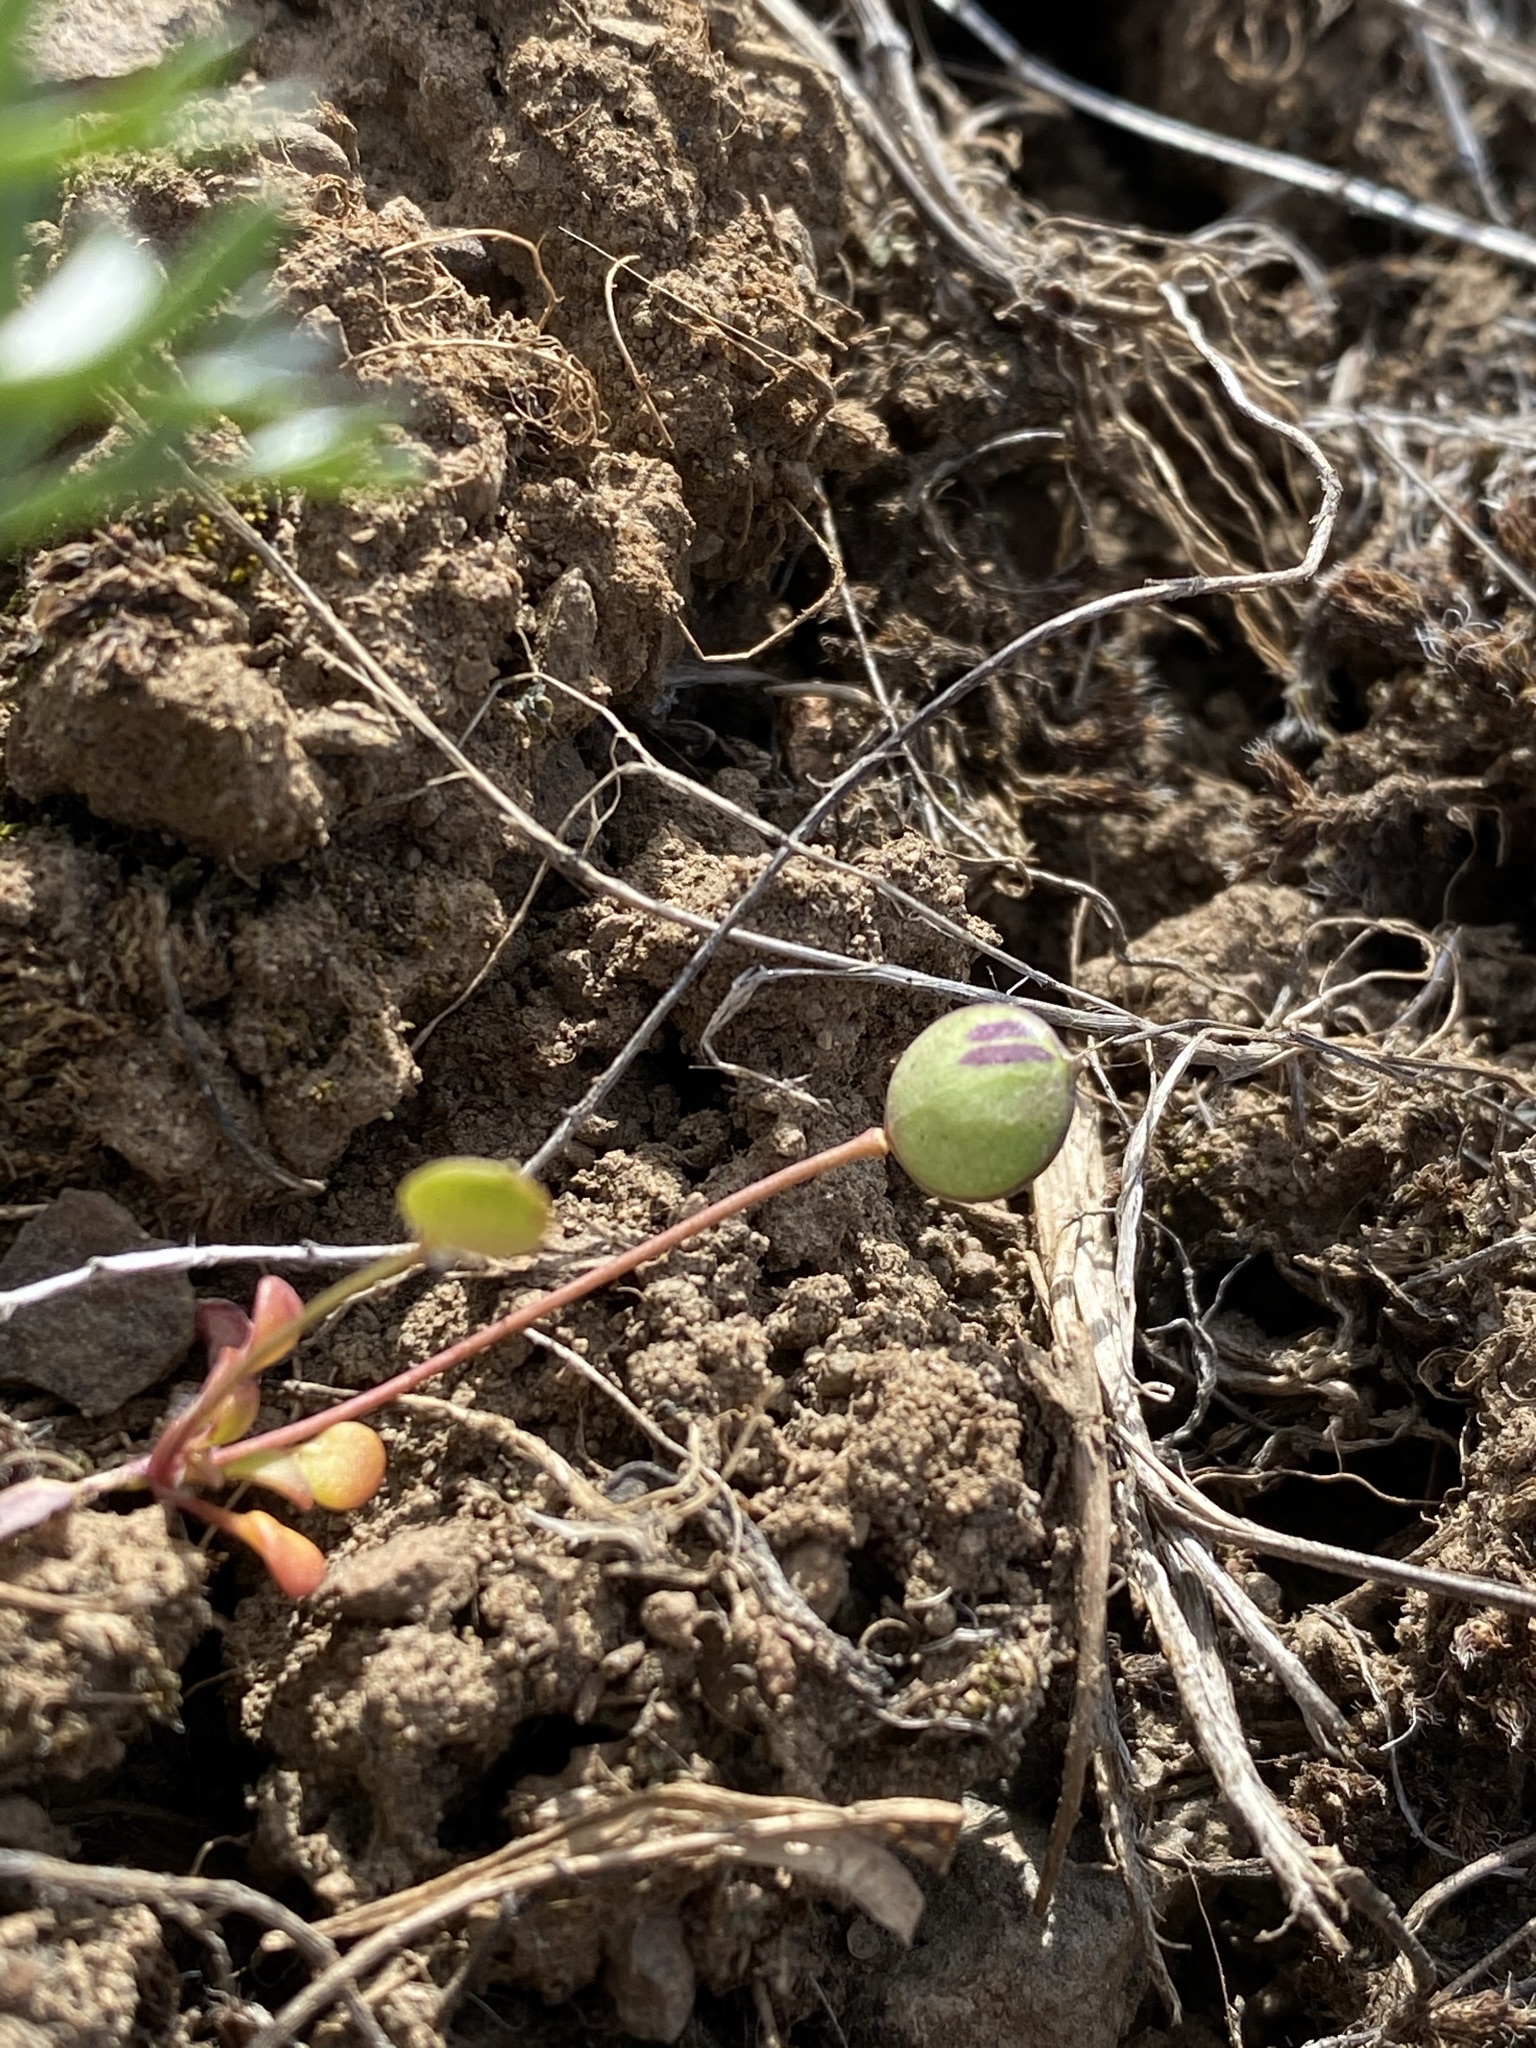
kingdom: Plantae
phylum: Tracheophyta
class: Magnoliopsida
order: Brassicales
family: Brassicaceae
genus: Idahoa
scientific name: Idahoa scapigera
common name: Scalepod
